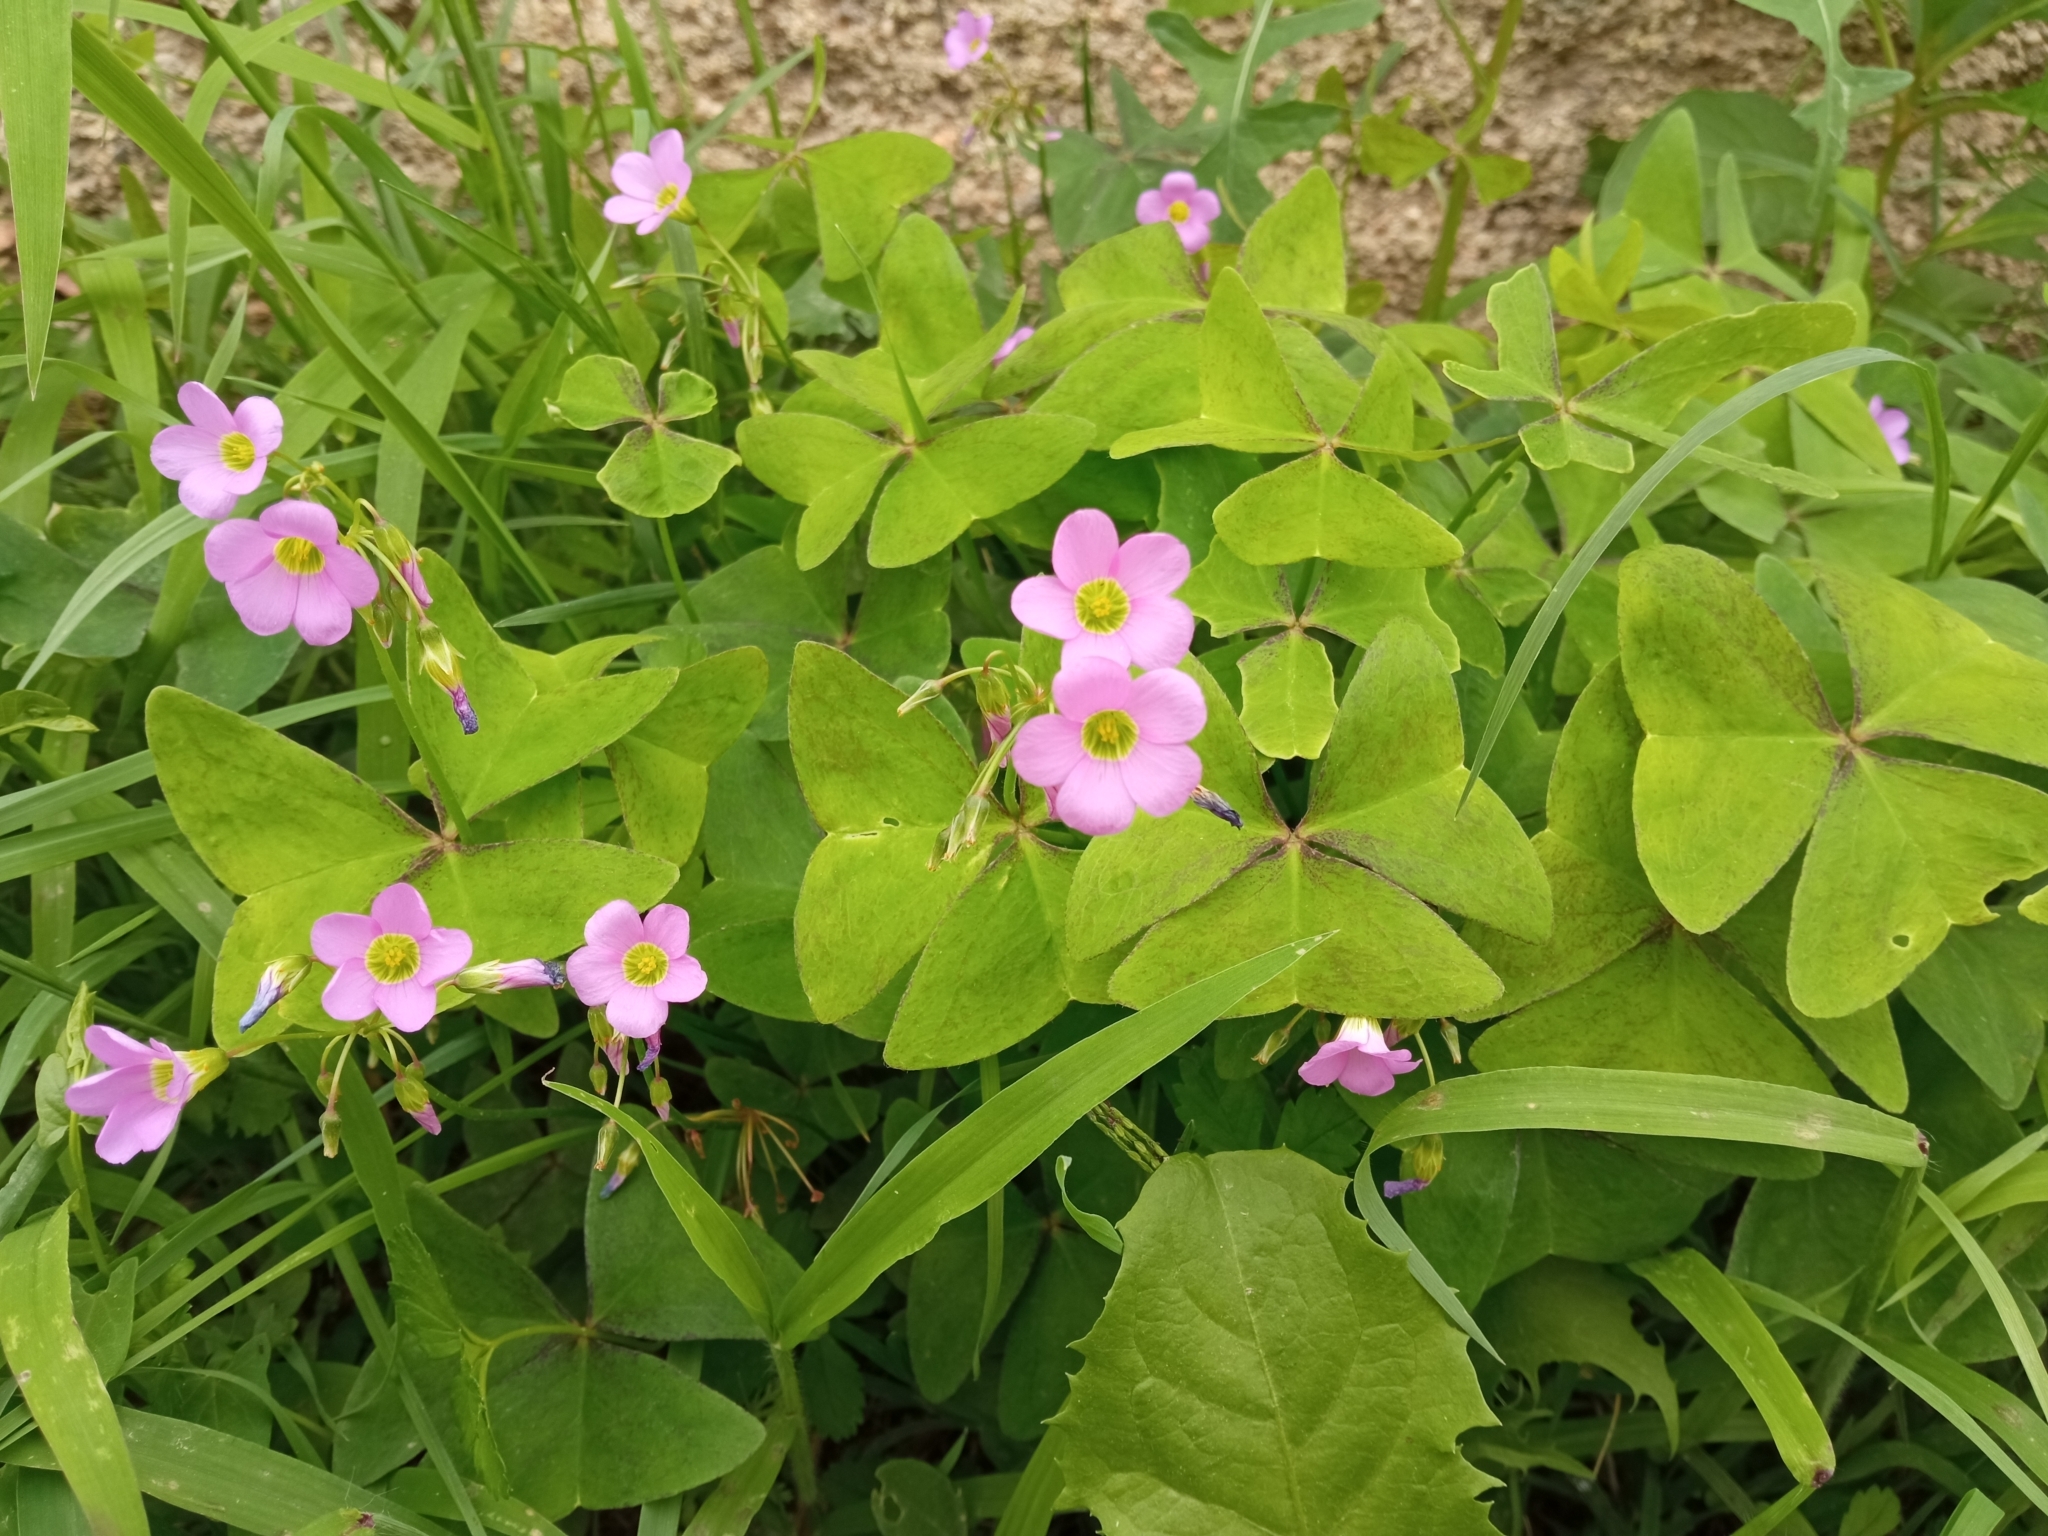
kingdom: Plantae
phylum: Tracheophyta
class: Magnoliopsida
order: Oxalidales
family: Oxalidaceae
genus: Oxalis
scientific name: Oxalis latifolia
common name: Garden pink-sorrel
